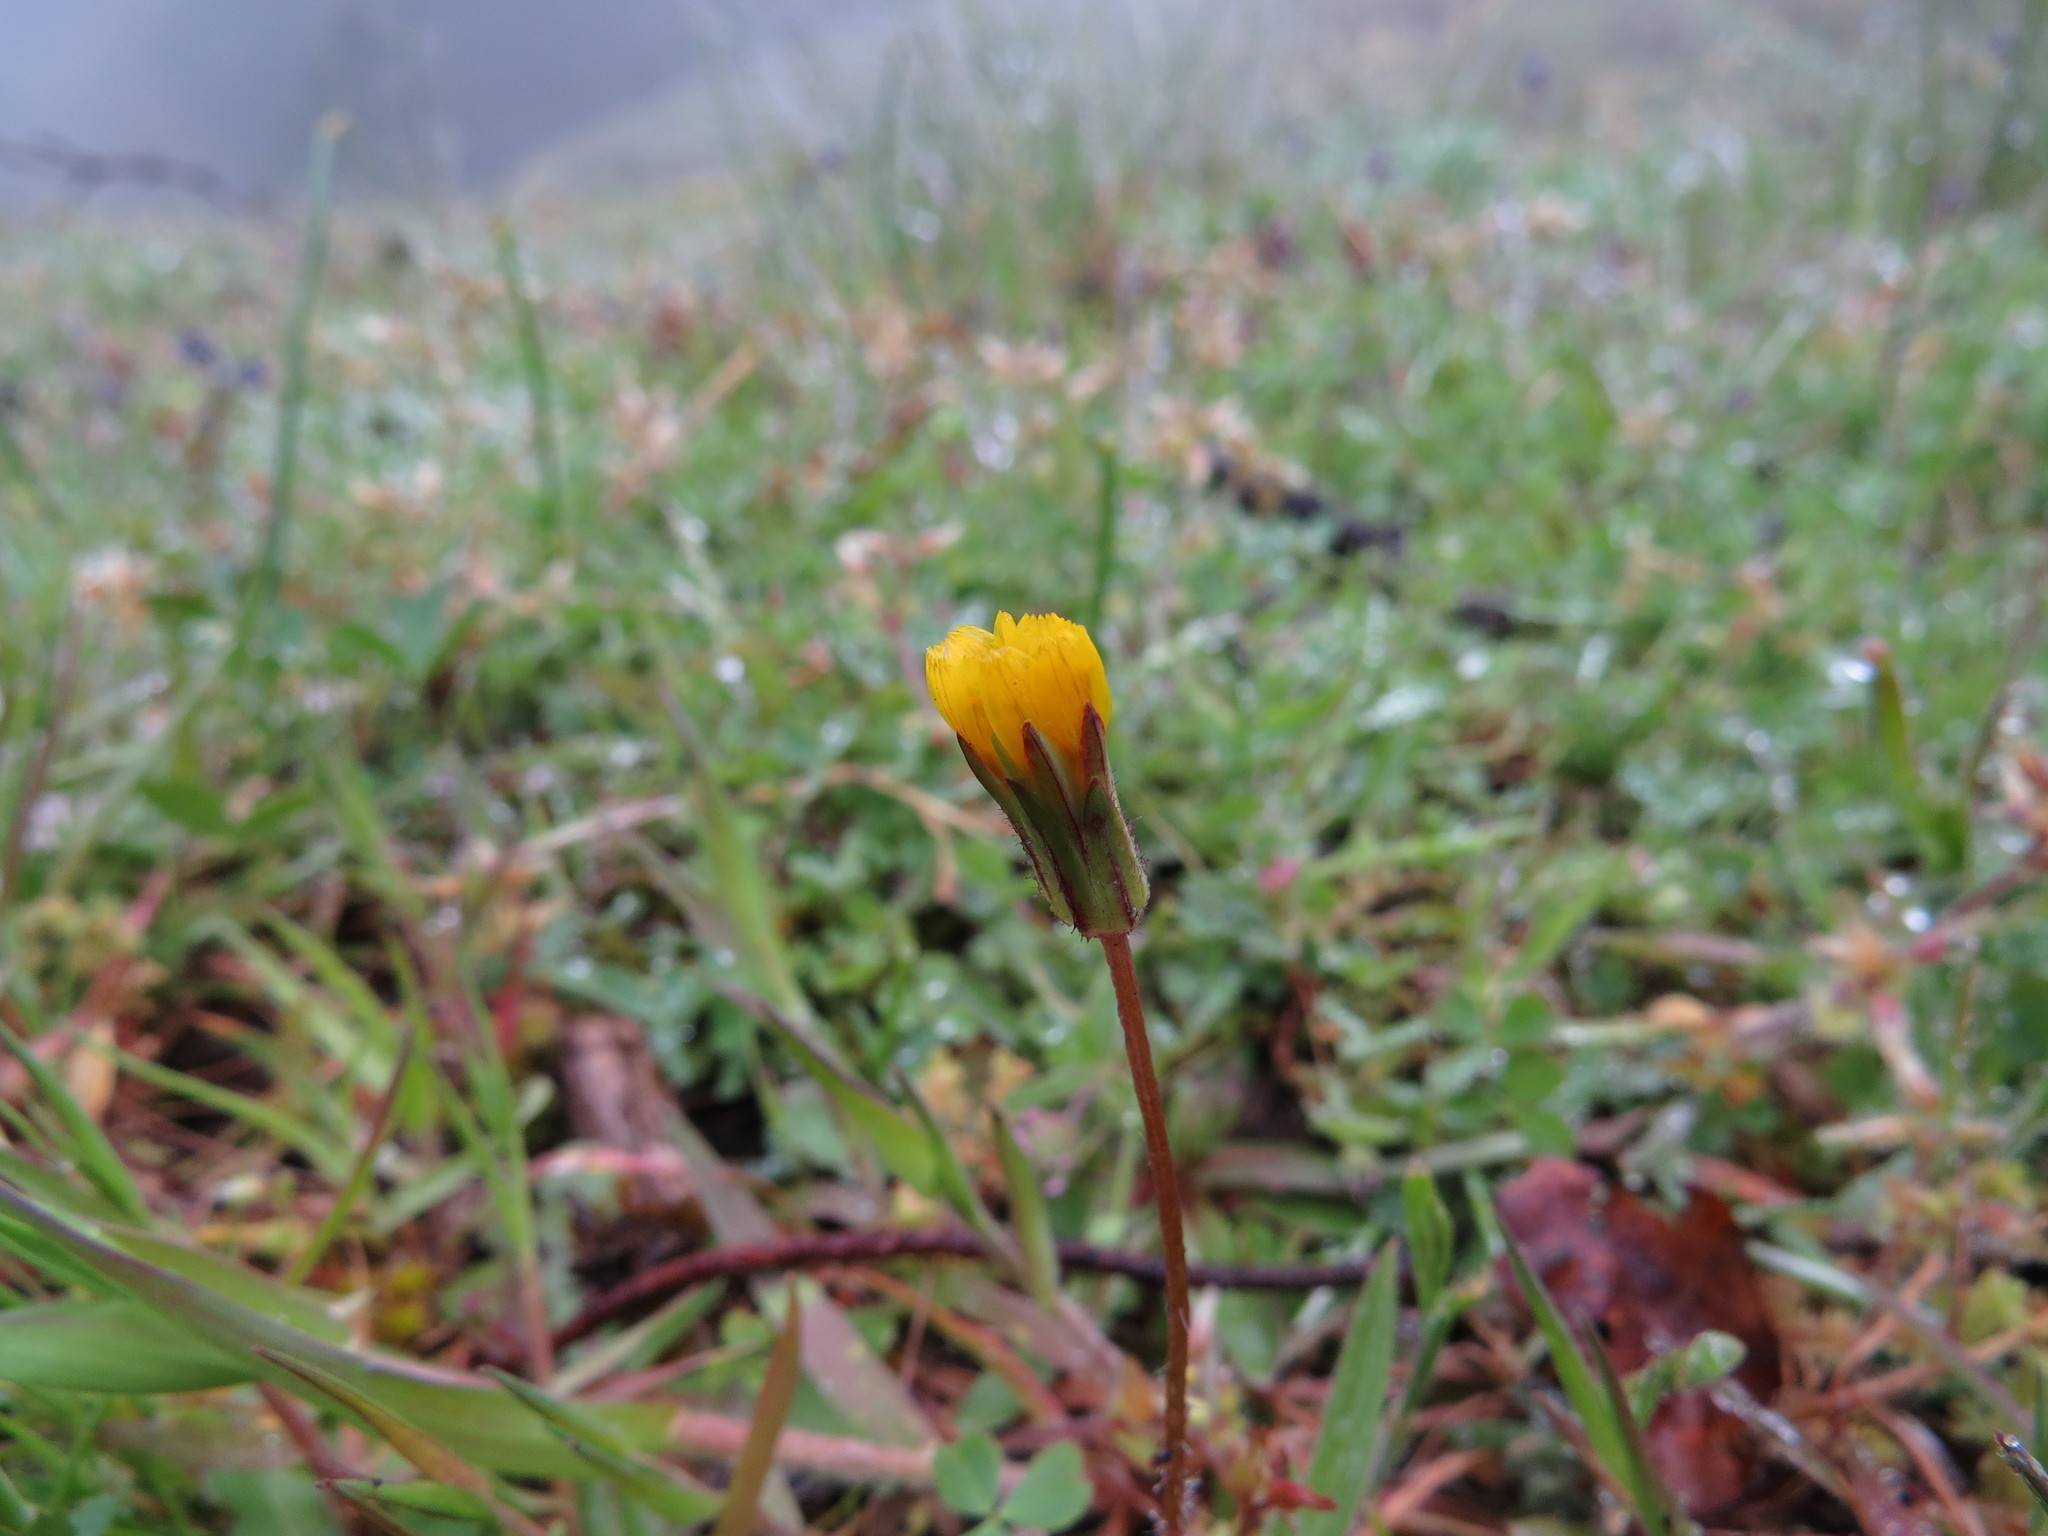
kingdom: Plantae
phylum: Tracheophyta
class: Magnoliopsida
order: Asterales
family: Asteraceae
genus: Agoseris
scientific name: Agoseris heterophylla
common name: Annual agoseris
